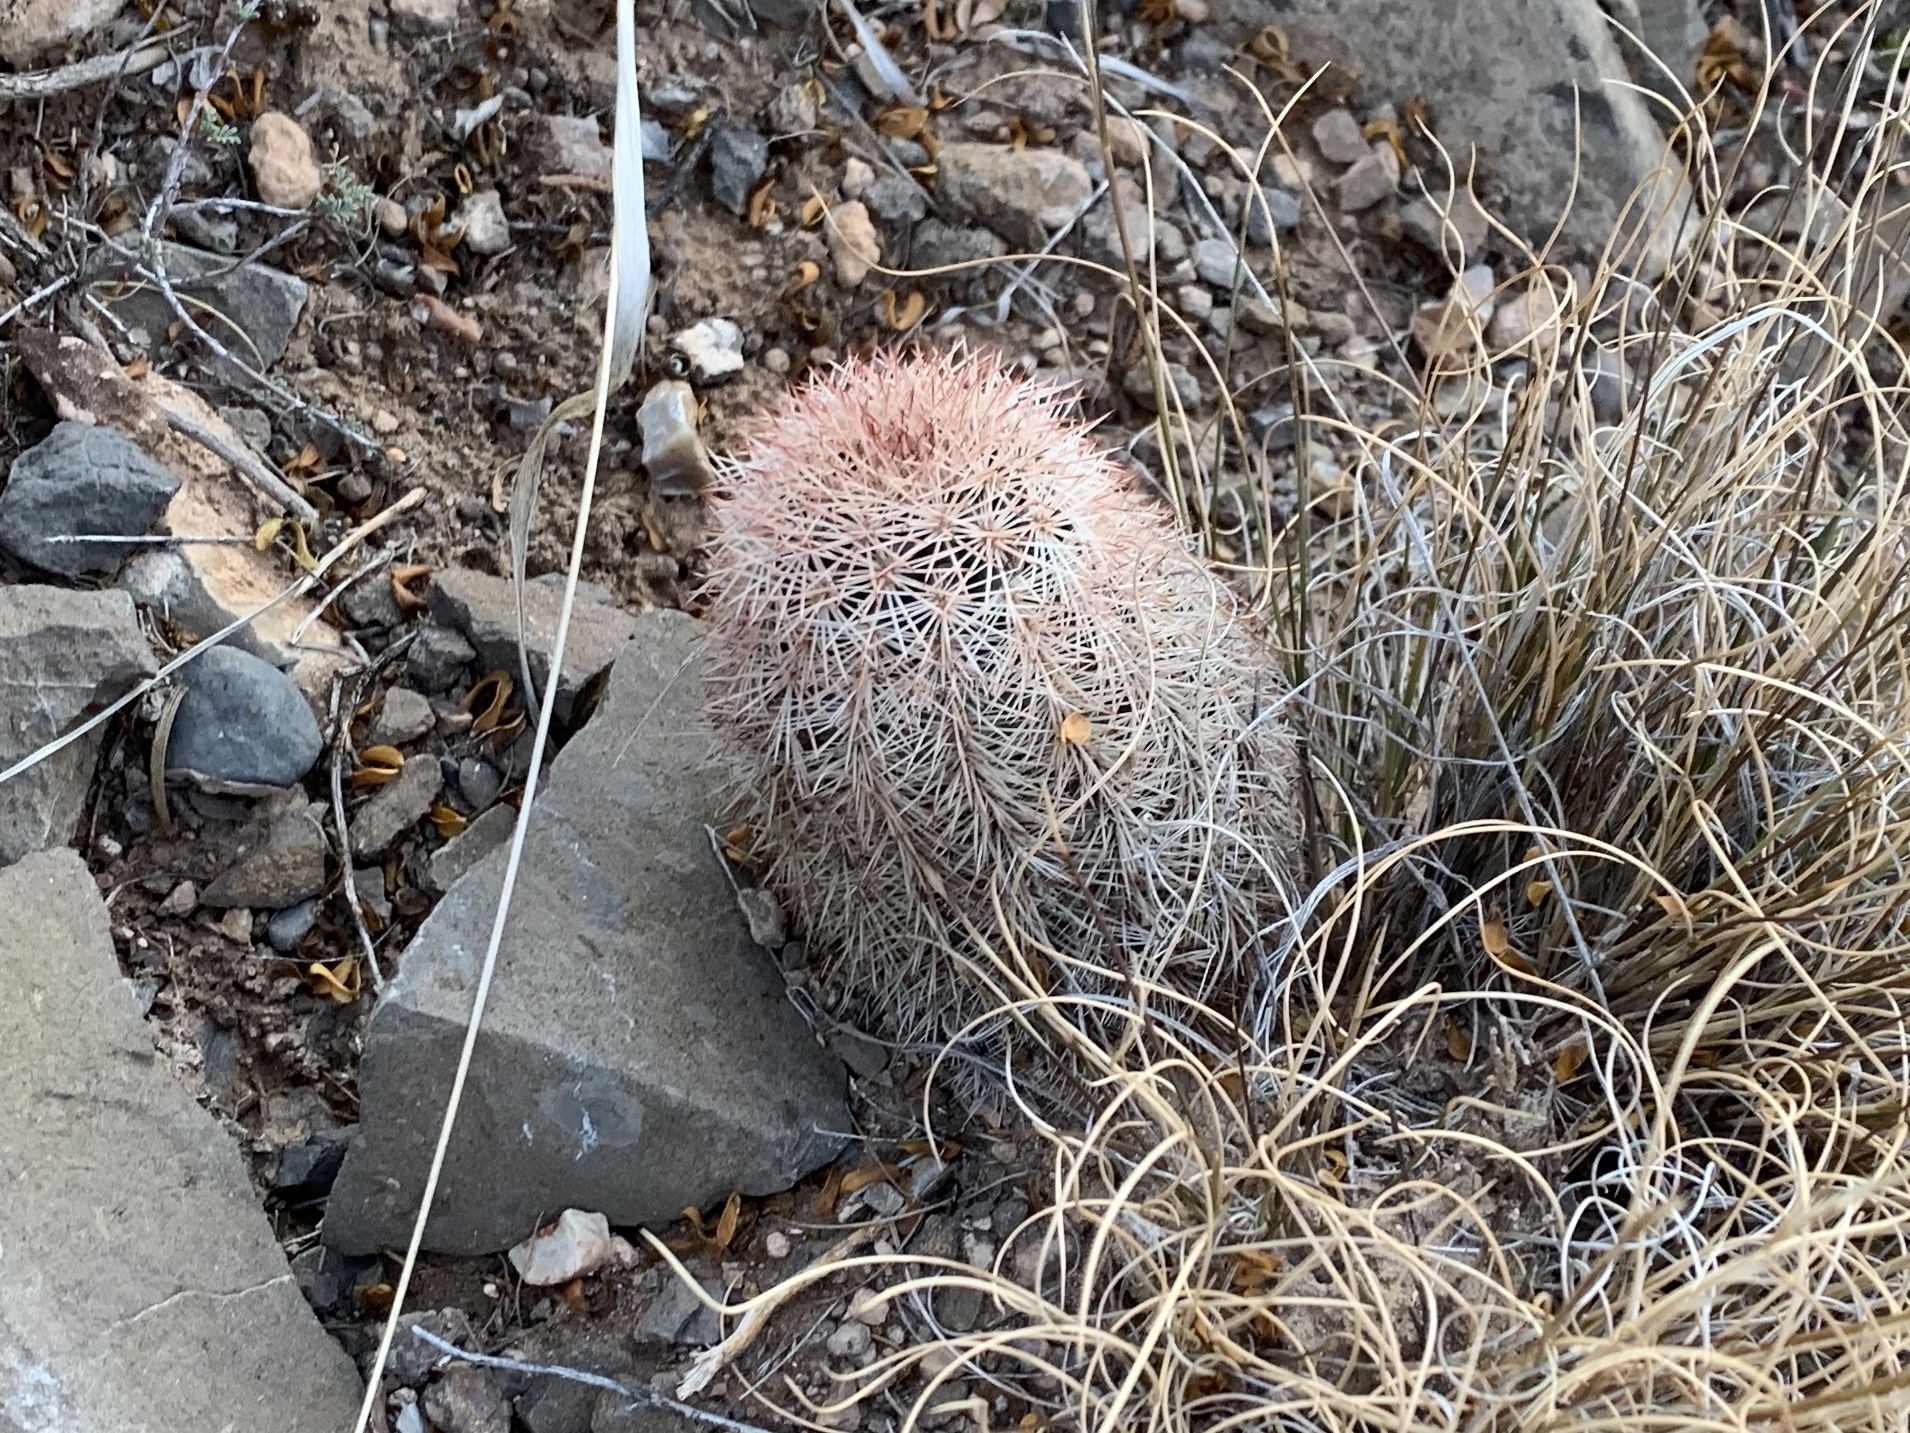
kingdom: Plantae
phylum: Tracheophyta
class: Magnoliopsida
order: Caryophyllales
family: Cactaceae
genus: Echinocereus
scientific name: Echinocereus dasyacanthus
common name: Spiny hedgehog cactus
